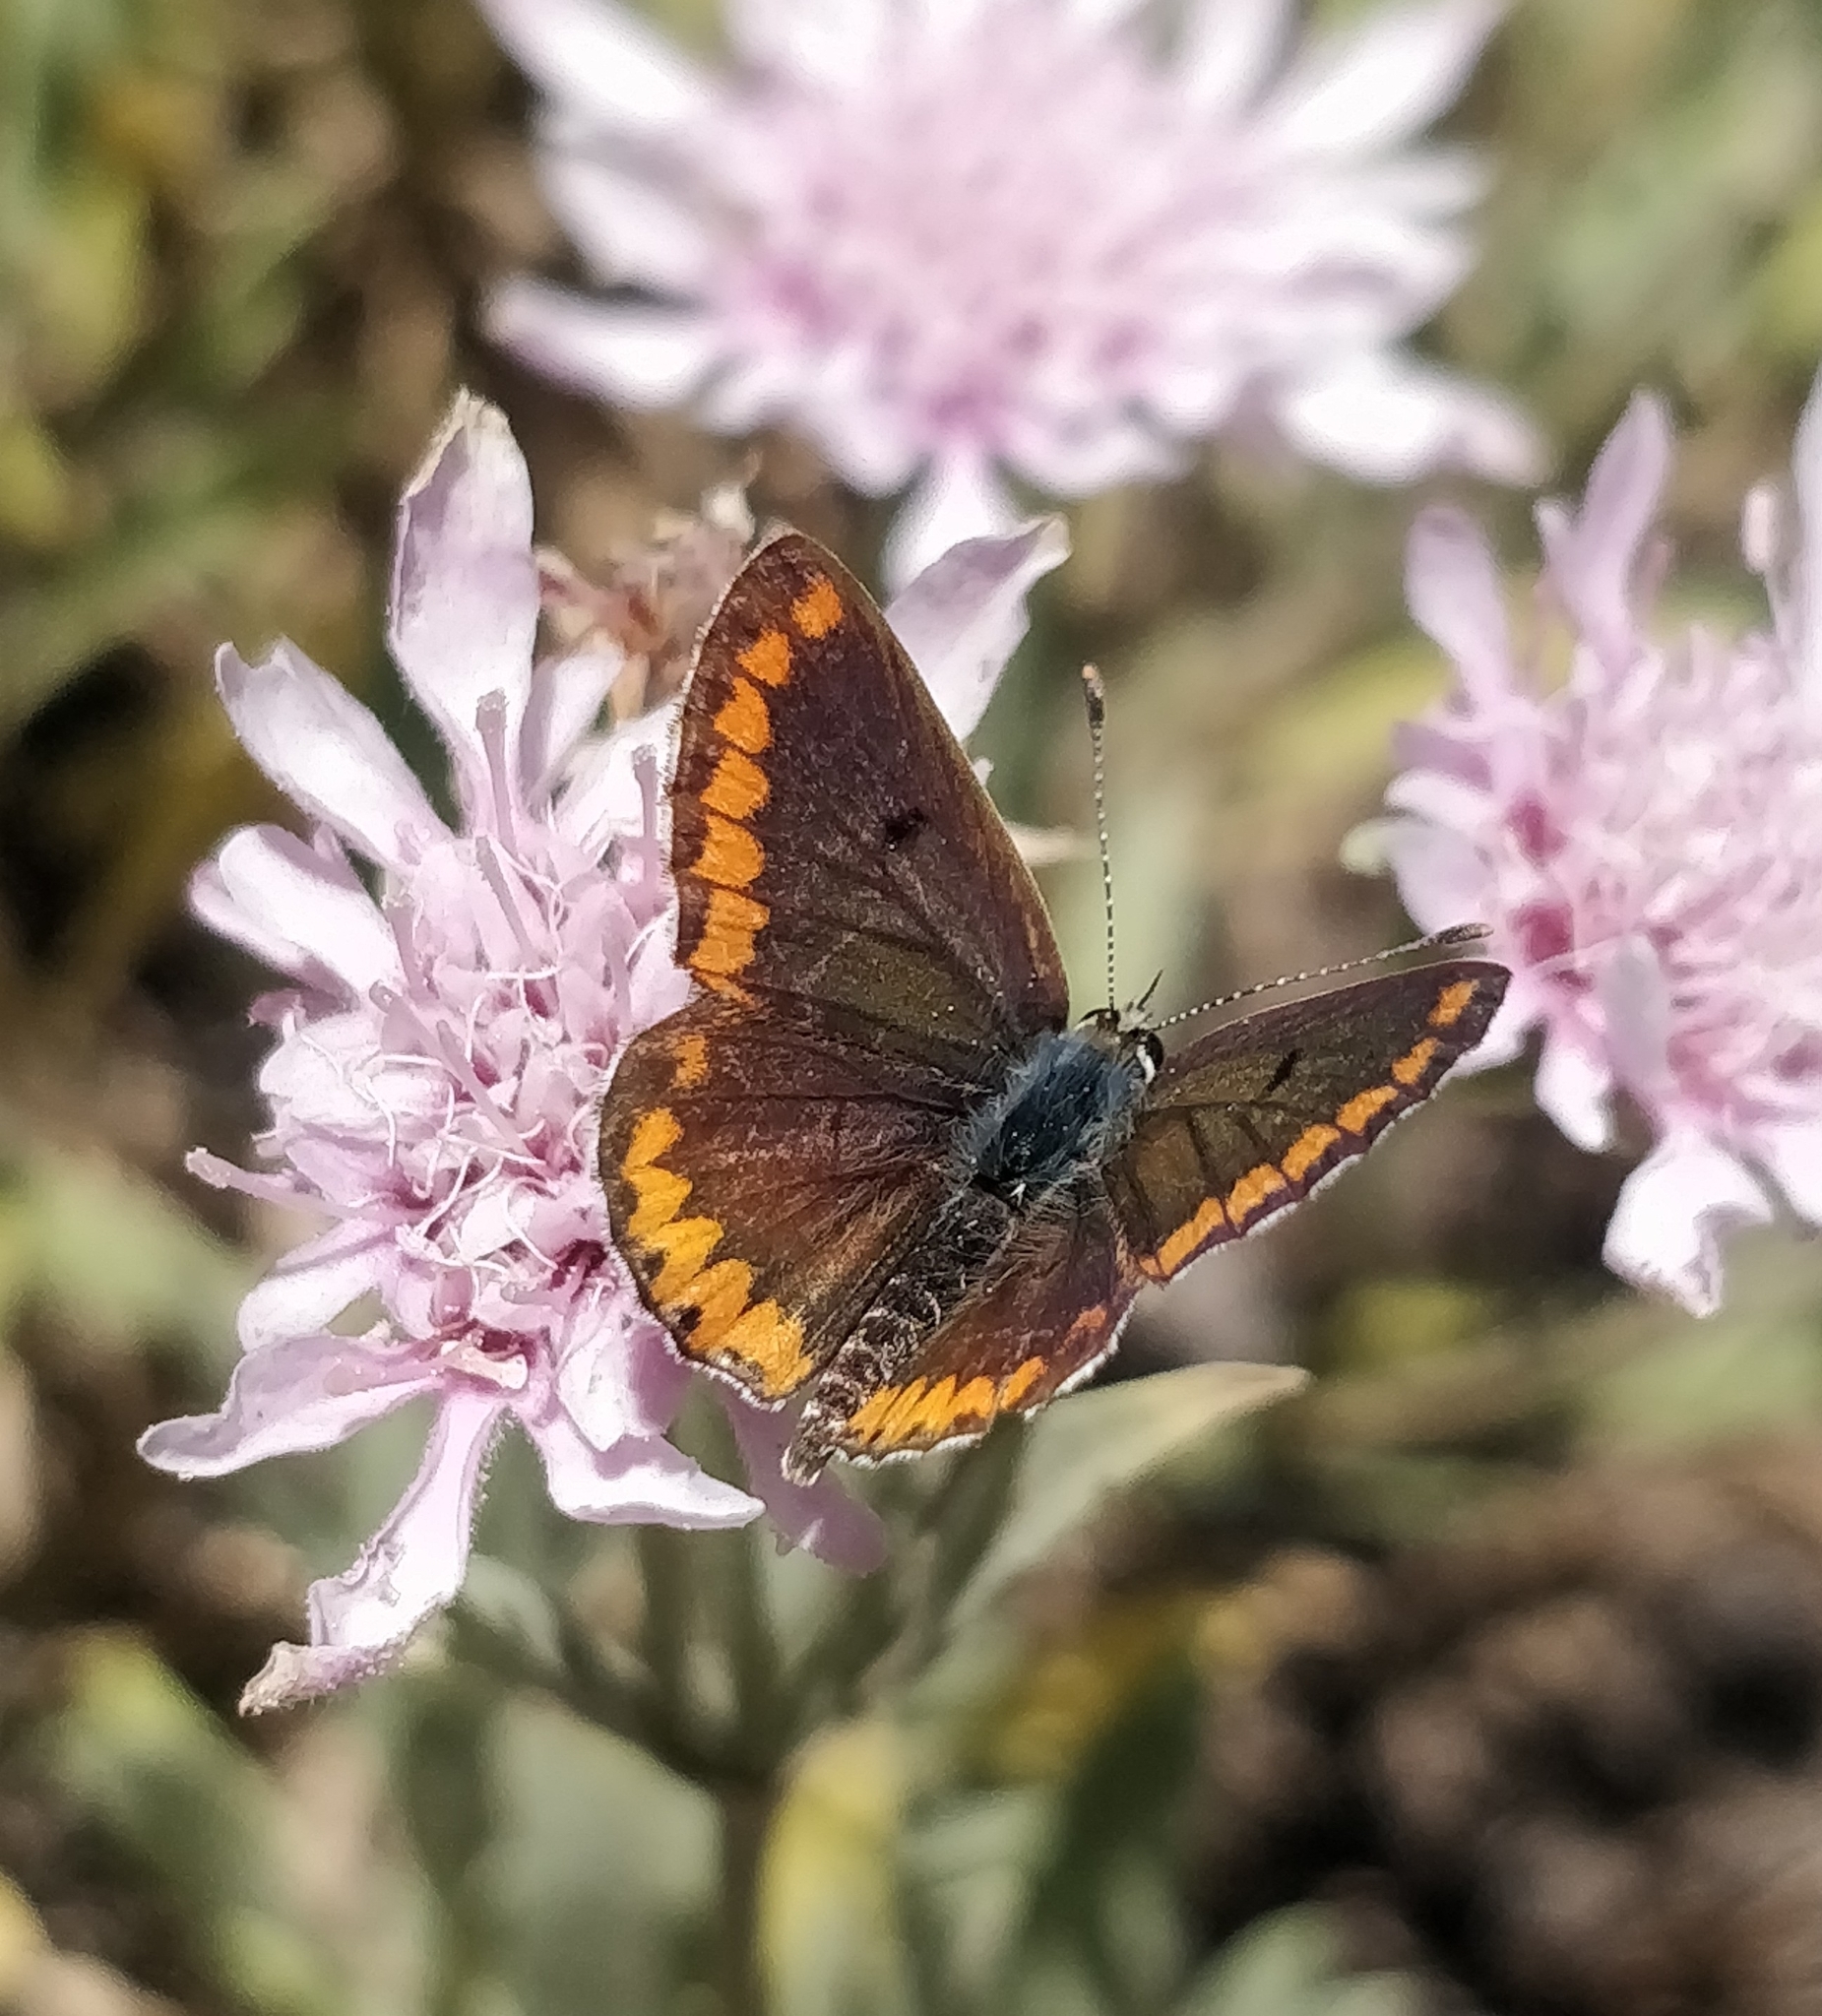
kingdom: Animalia
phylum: Arthropoda
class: Insecta
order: Lepidoptera
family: Lycaenidae
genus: Aricia
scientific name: Aricia cramera
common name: Eschscholtz´s brown  argus
